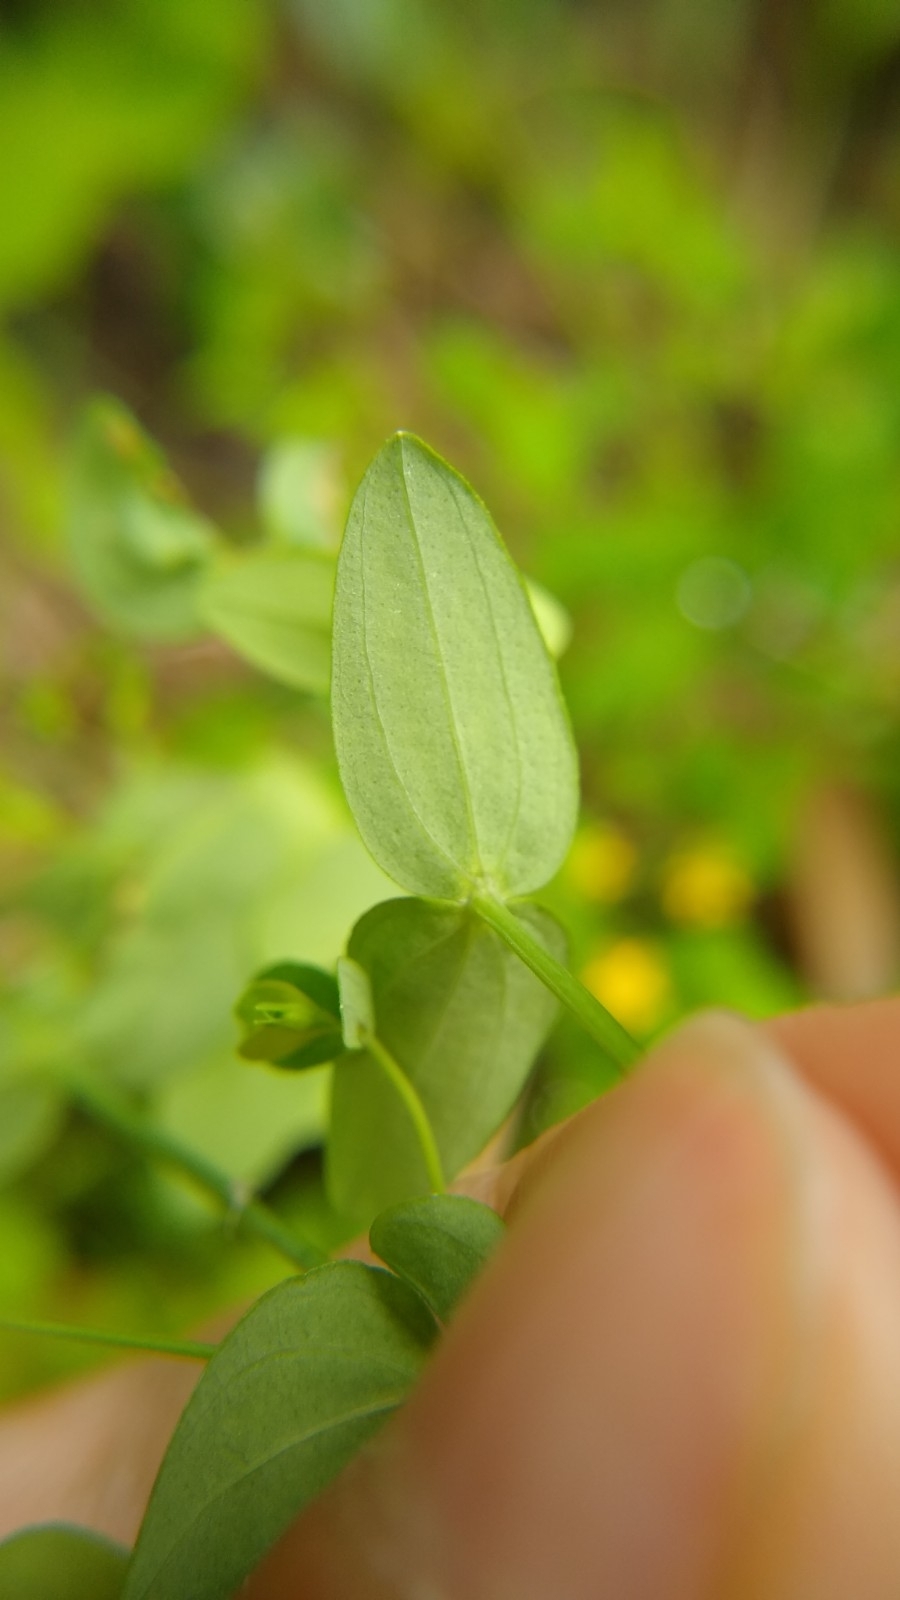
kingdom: Plantae
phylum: Tracheophyta
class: Magnoliopsida
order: Malpighiales
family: Hypericaceae
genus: Hypericum
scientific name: Hypericum mutilum
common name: Dwarf st. john's-wort
